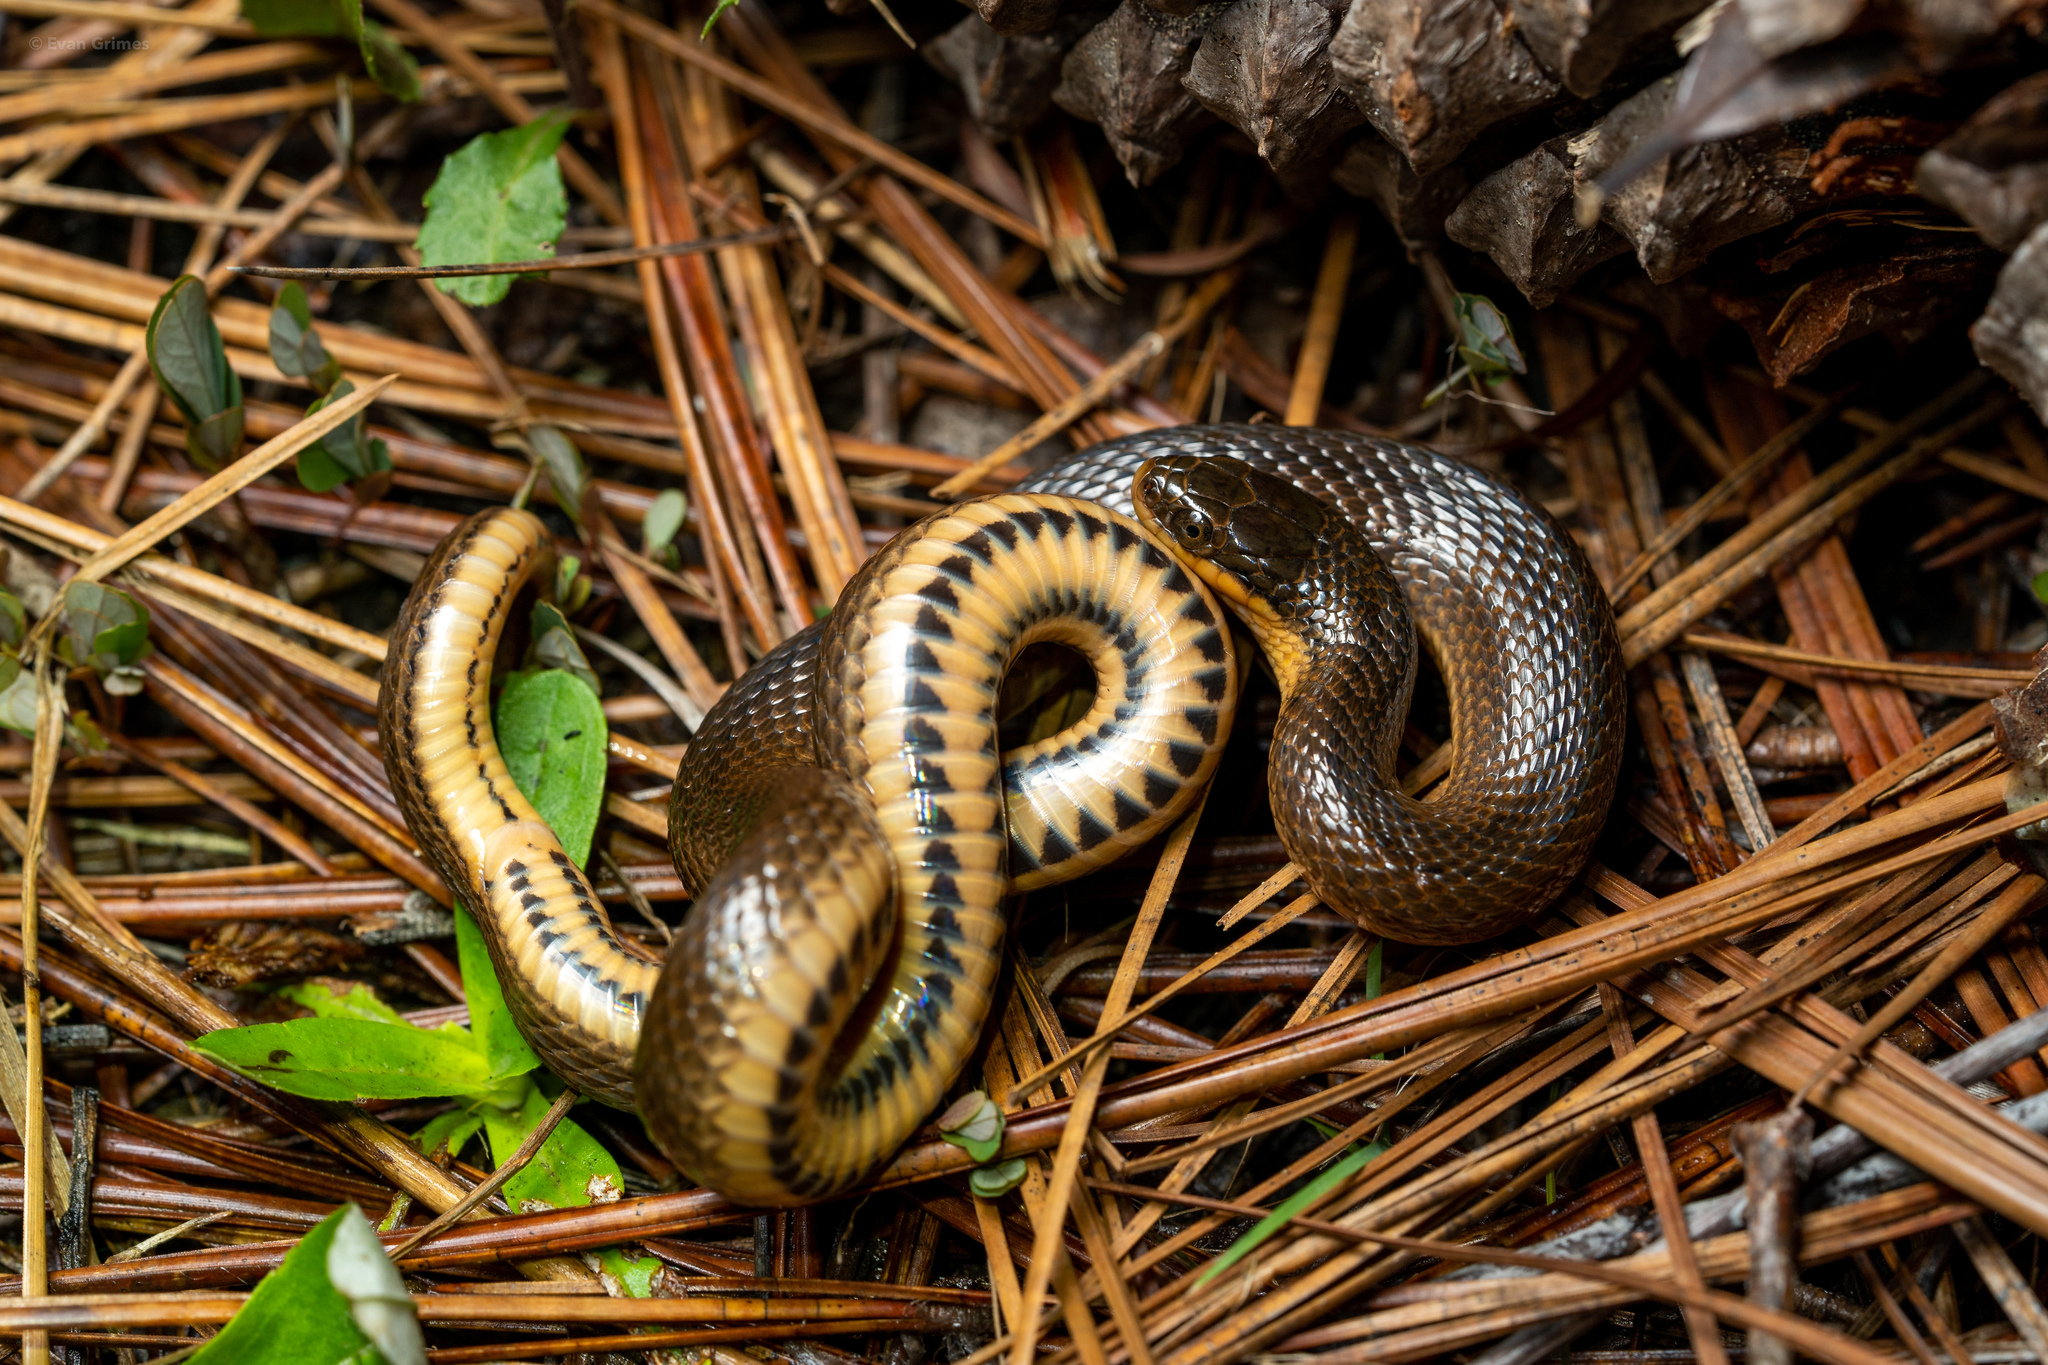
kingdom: Animalia
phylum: Chordata
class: Squamata
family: Colubridae
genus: Liodytes
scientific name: Liodytes rigida
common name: Crayfish snake
